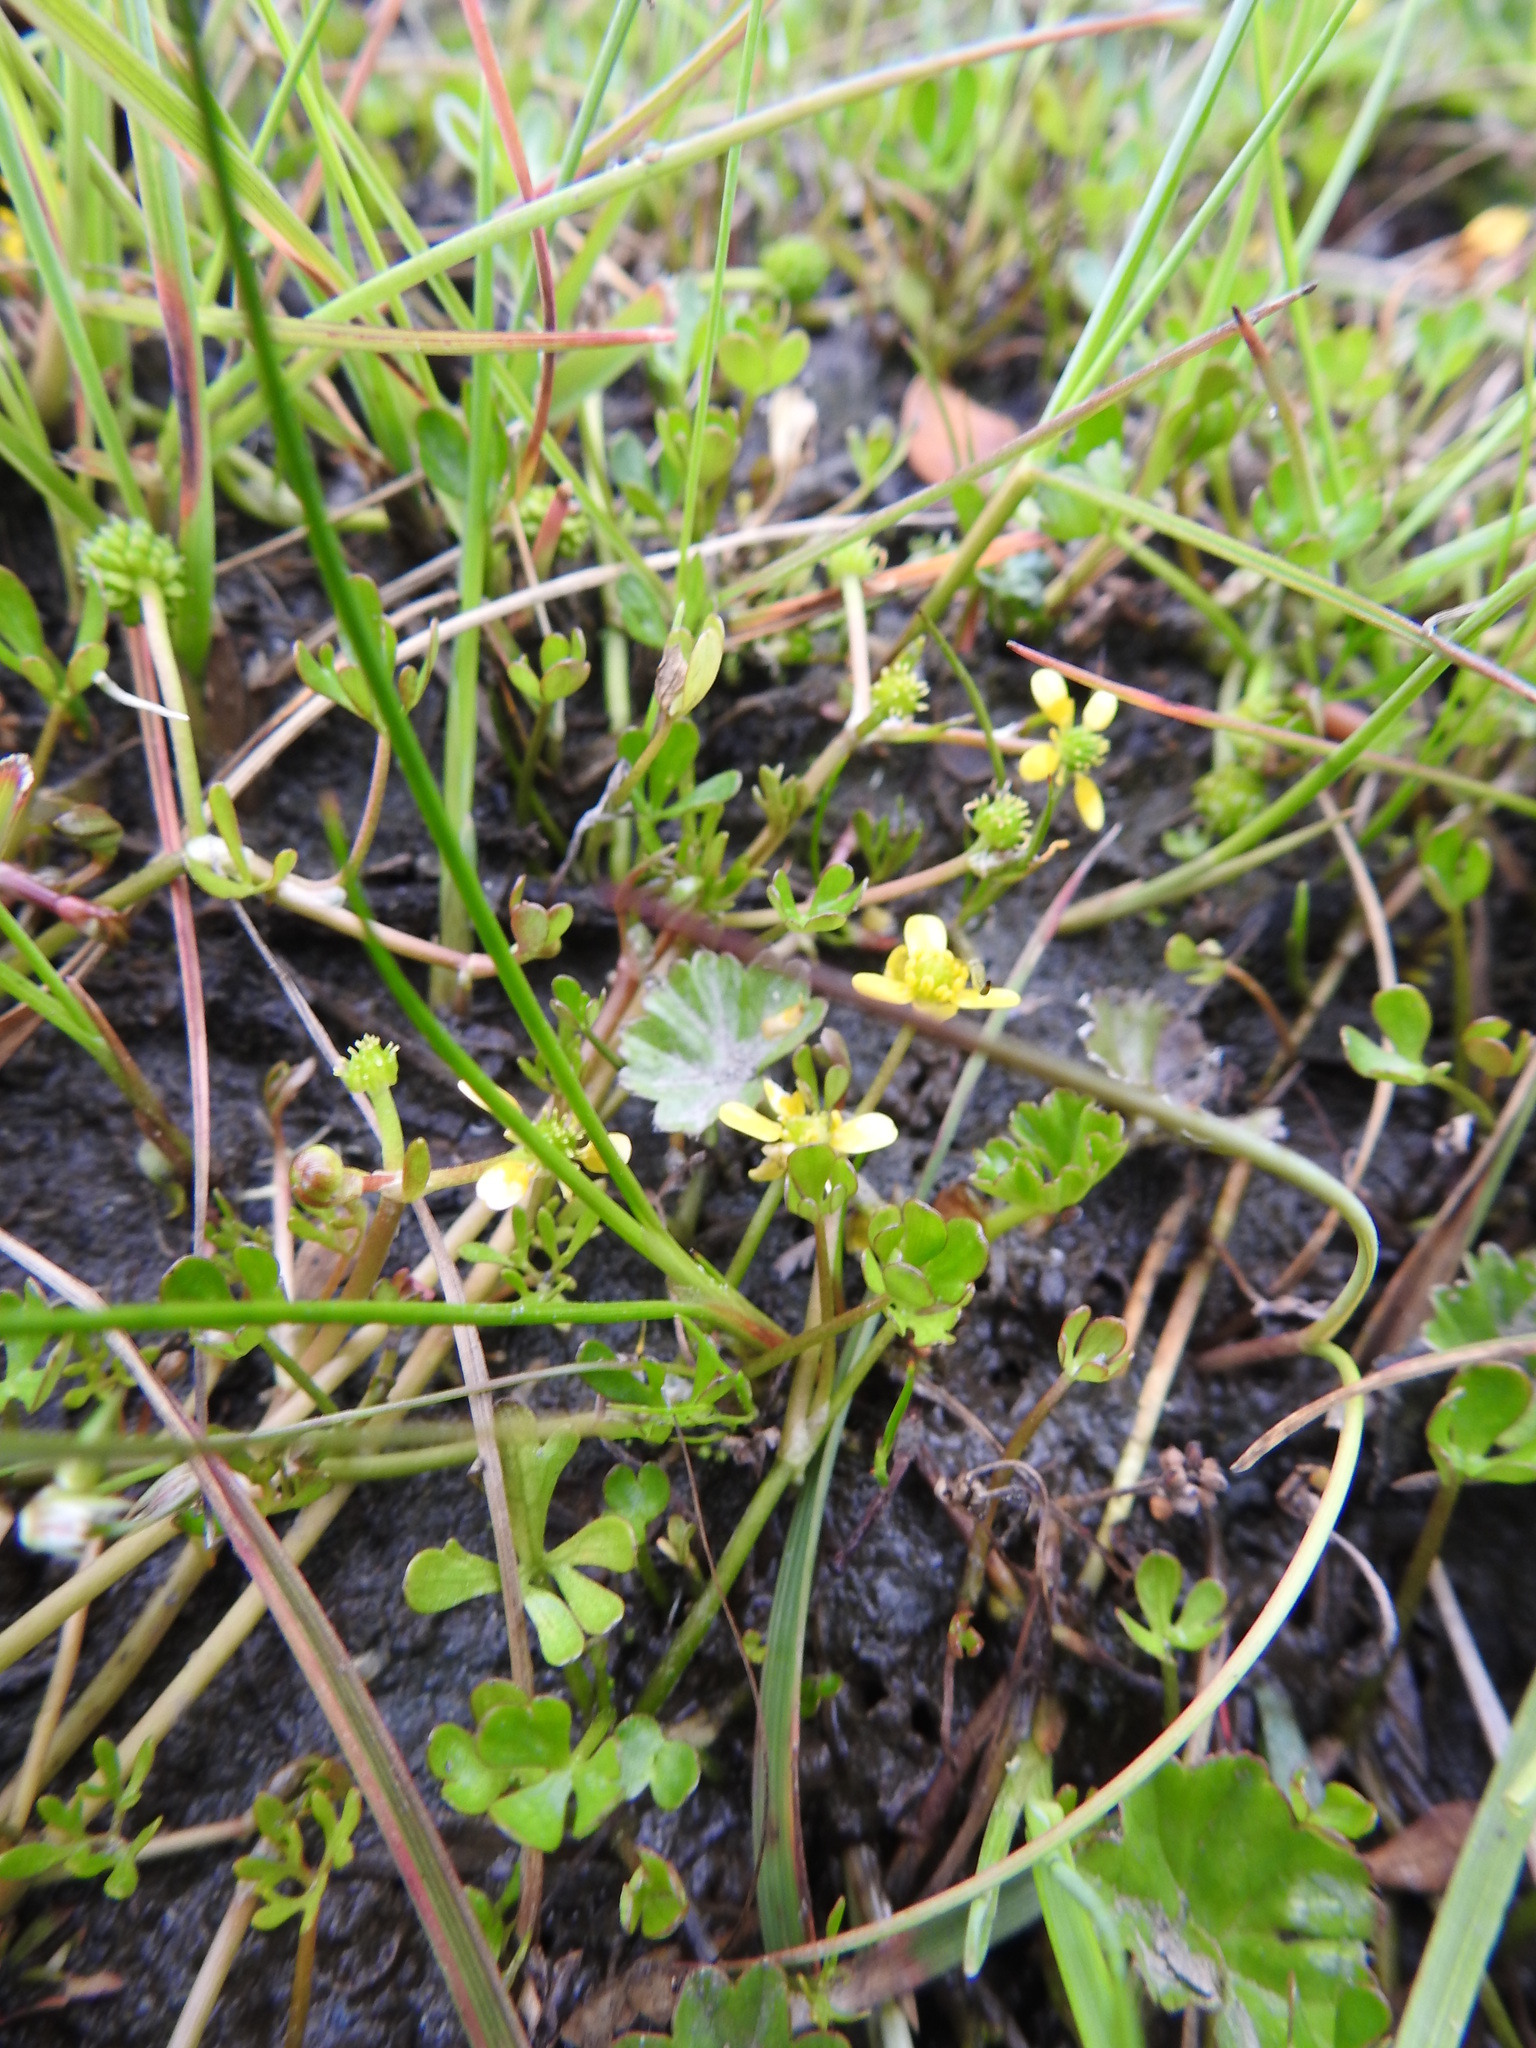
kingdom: Plantae
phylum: Tracheophyta
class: Magnoliopsida
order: Ranunculales
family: Ranunculaceae
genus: Ranunculus
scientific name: Ranunculus fuegianus
